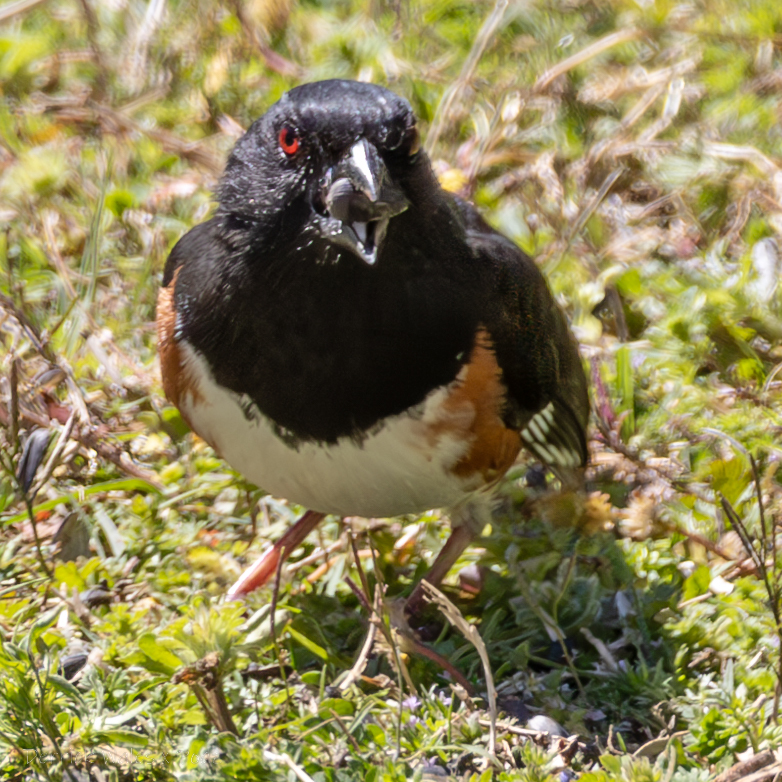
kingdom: Animalia
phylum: Chordata
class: Aves
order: Passeriformes
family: Passerellidae
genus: Pipilo
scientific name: Pipilo erythrophthalmus
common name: Eastern towhee
